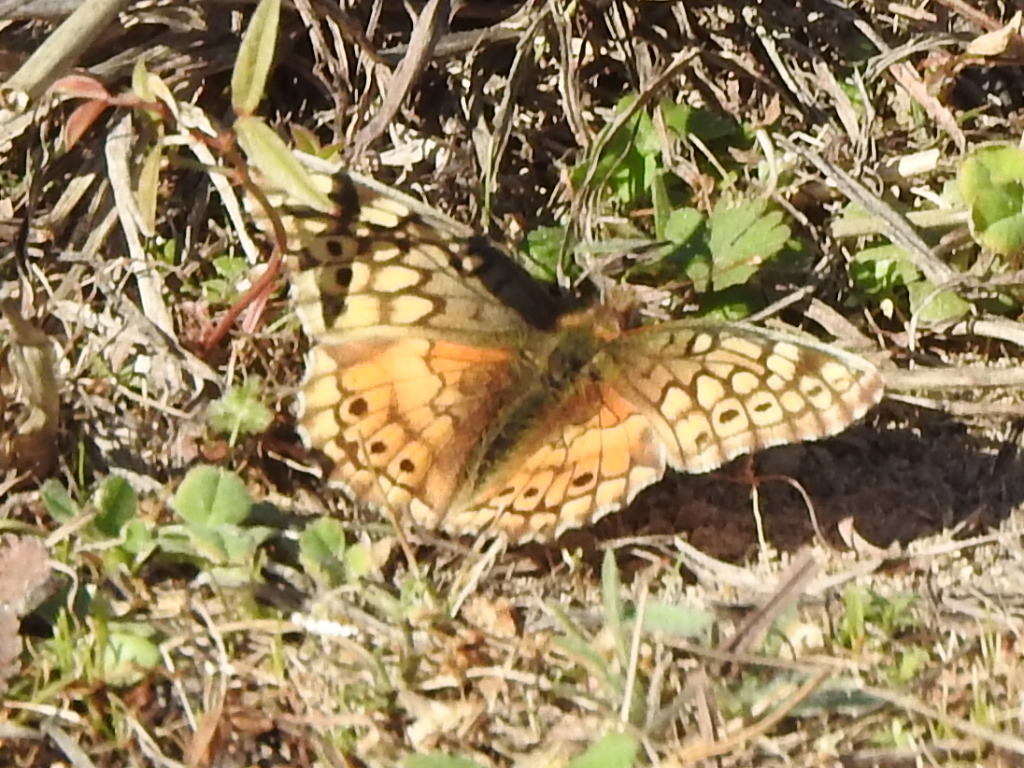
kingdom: Animalia
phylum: Arthropoda
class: Insecta
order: Lepidoptera
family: Nymphalidae
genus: Euptoieta
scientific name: Euptoieta claudia
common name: Variegated fritillary
